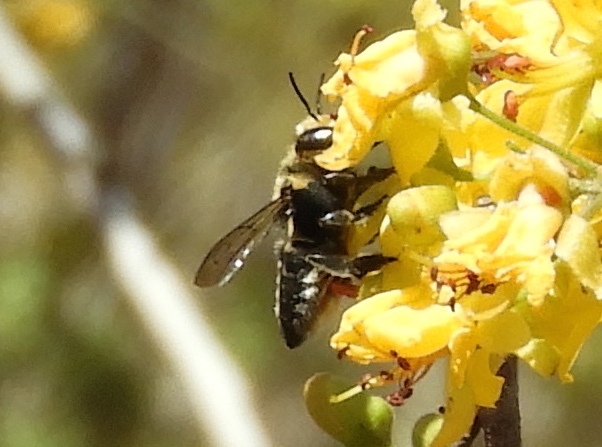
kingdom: Animalia
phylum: Arthropoda
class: Insecta
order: Hymenoptera
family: Megachilidae
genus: Megachile
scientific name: Megachile
